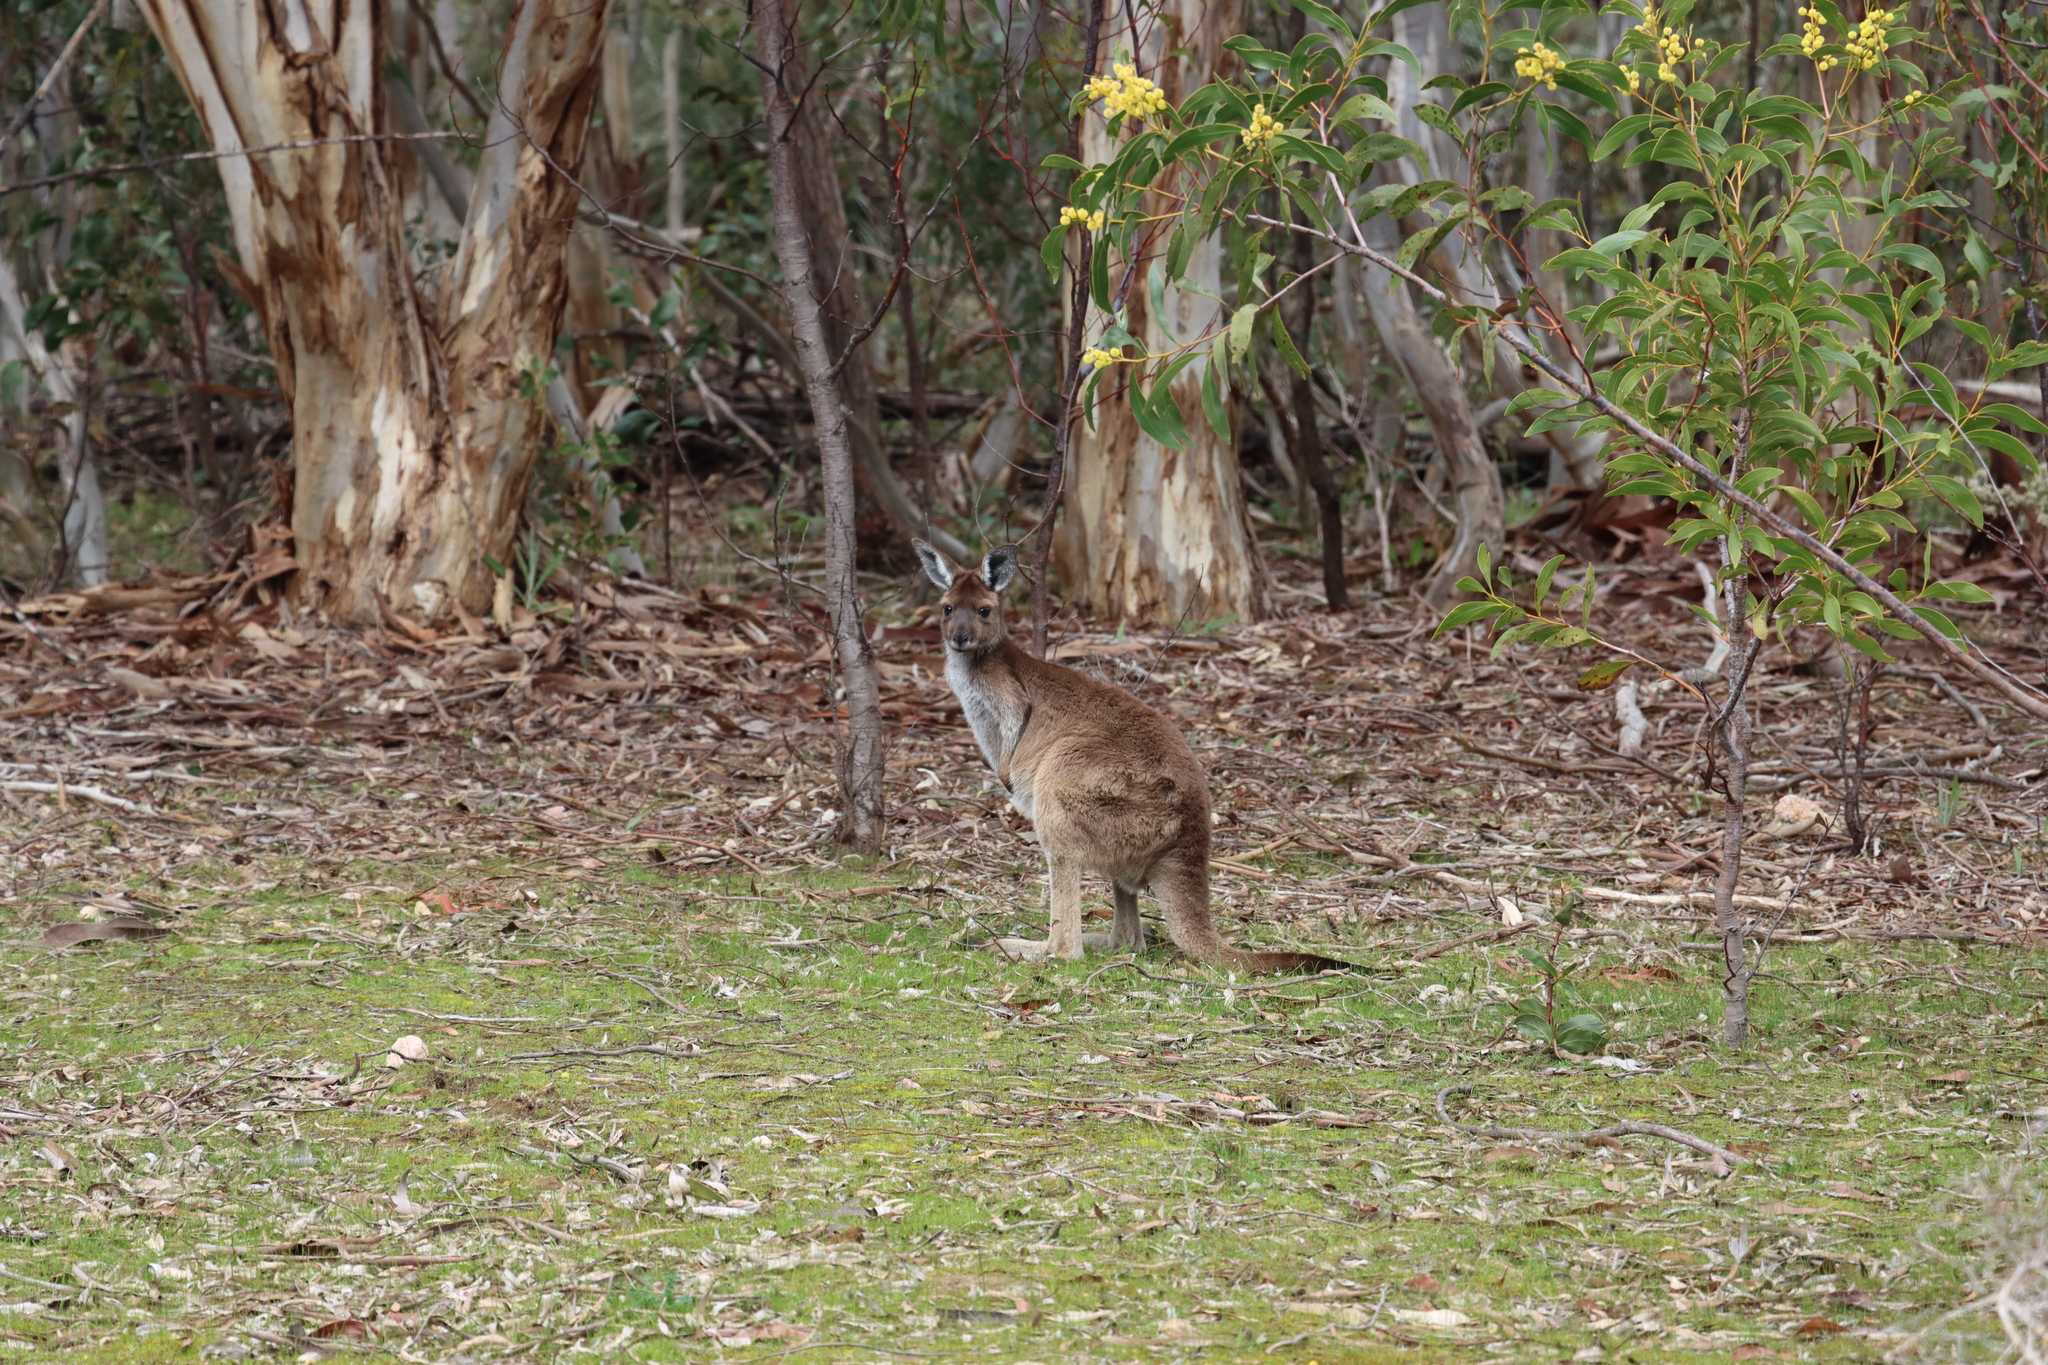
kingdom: Animalia
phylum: Chordata
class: Mammalia
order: Diprotodontia
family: Macropodidae
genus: Macropus
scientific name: Macropus fuliginosus
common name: Western grey kangaroo
